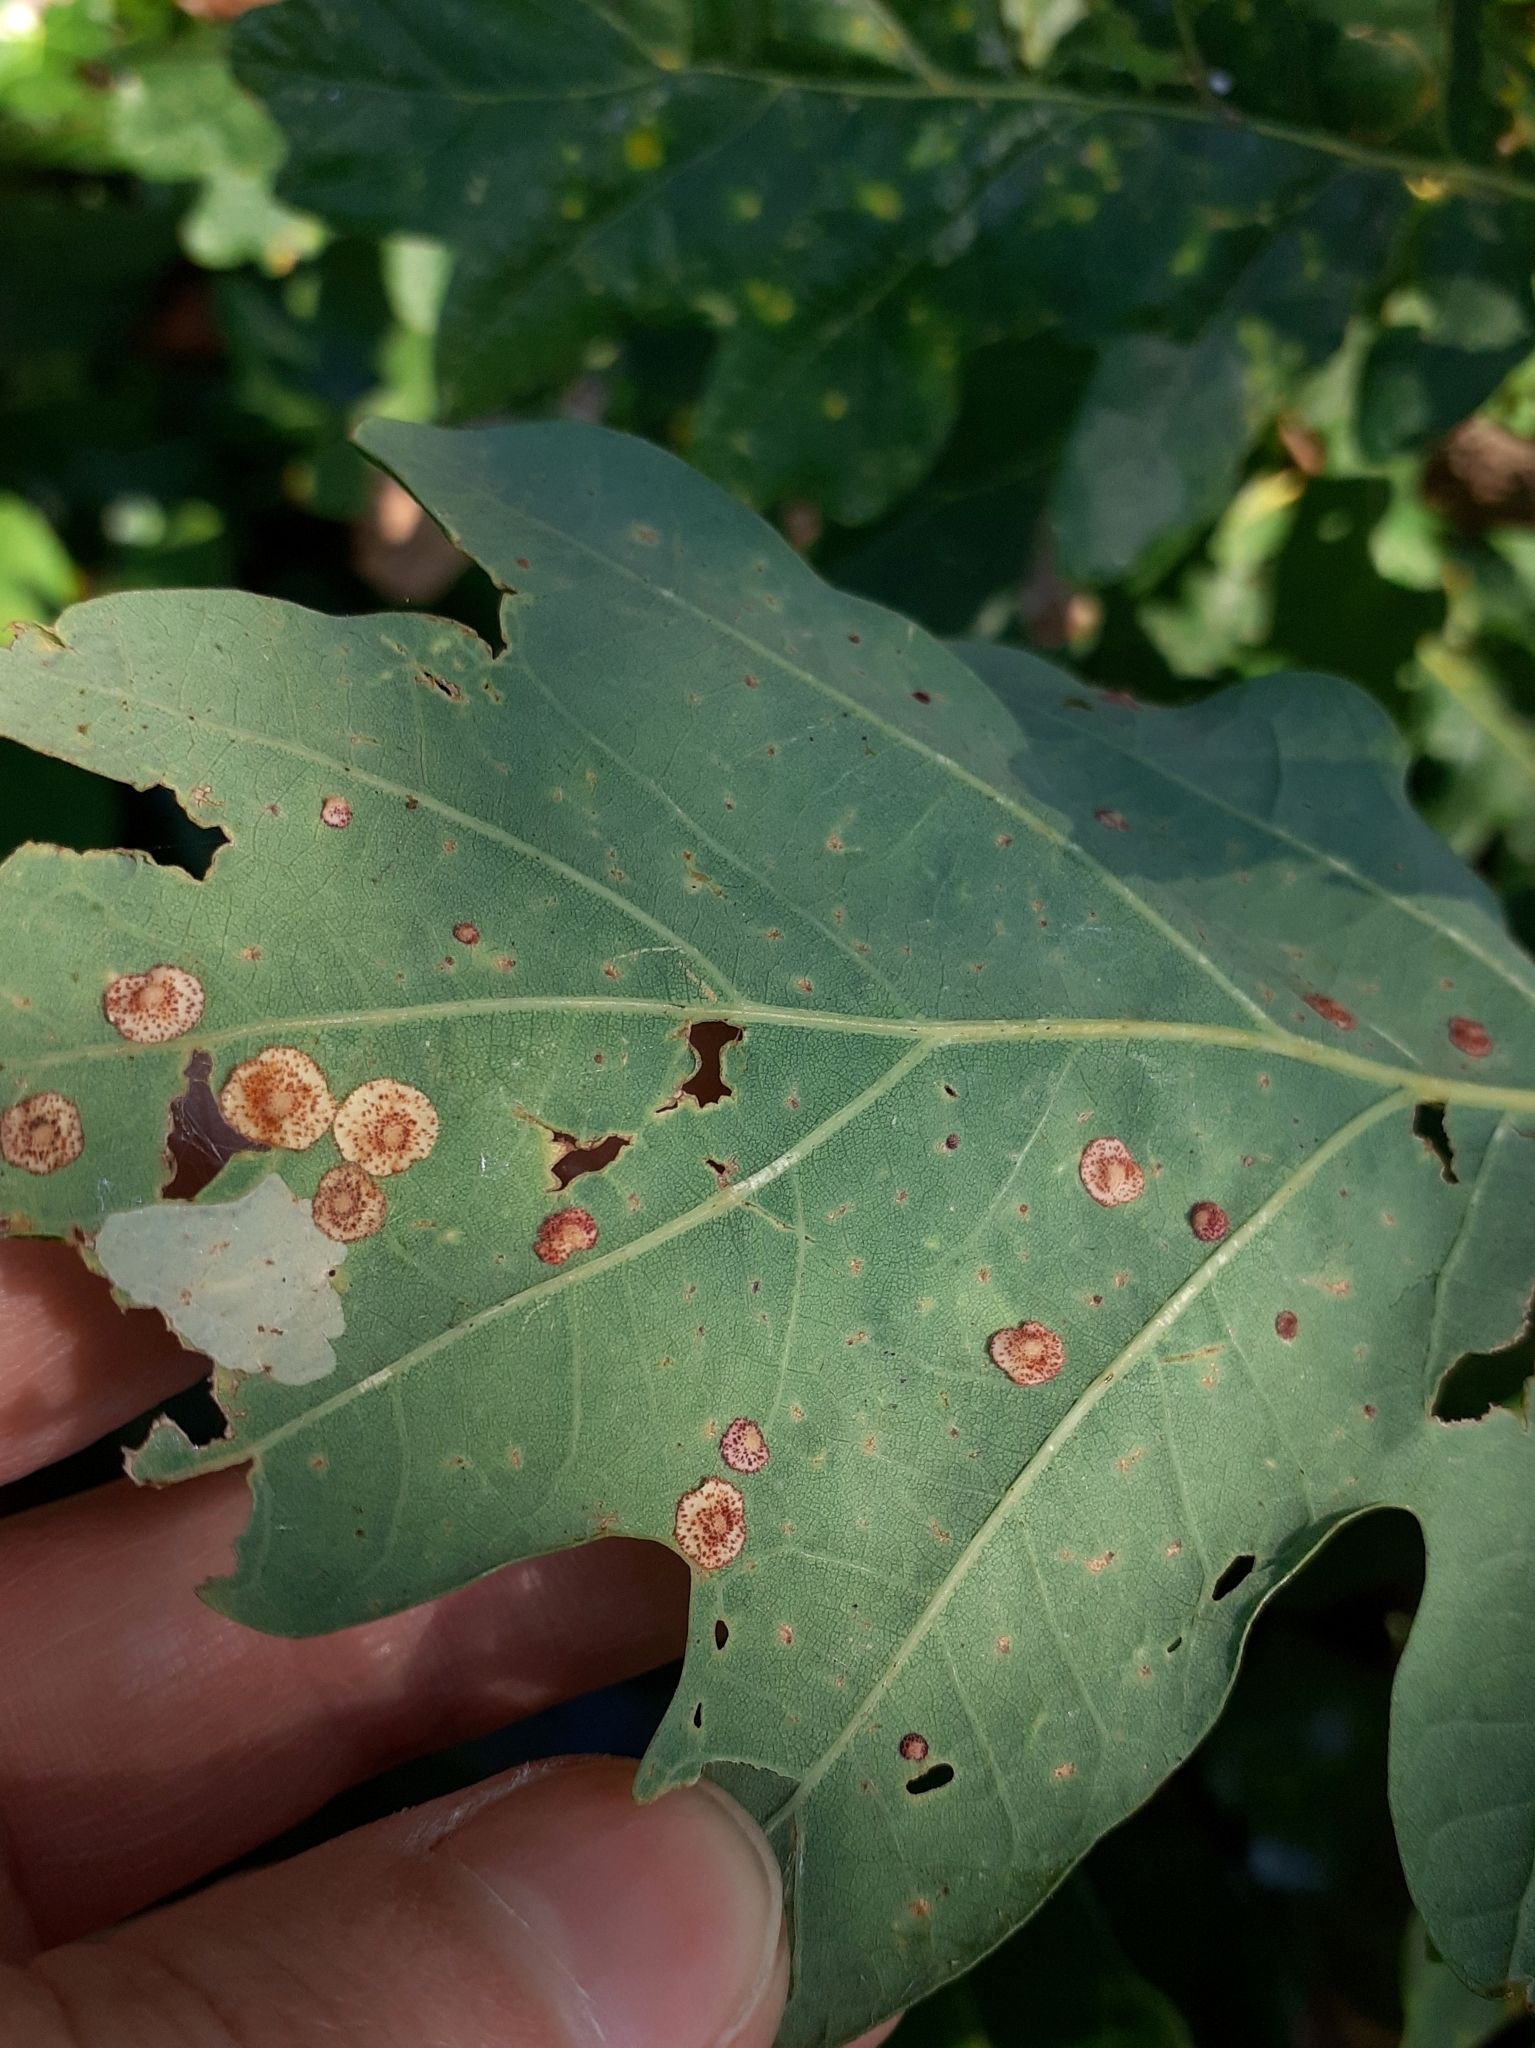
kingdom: Animalia
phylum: Arthropoda
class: Insecta
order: Hymenoptera
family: Cynipidae
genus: Neuroterus
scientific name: Neuroterus quercusbaccarum
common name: Common spangle gall
